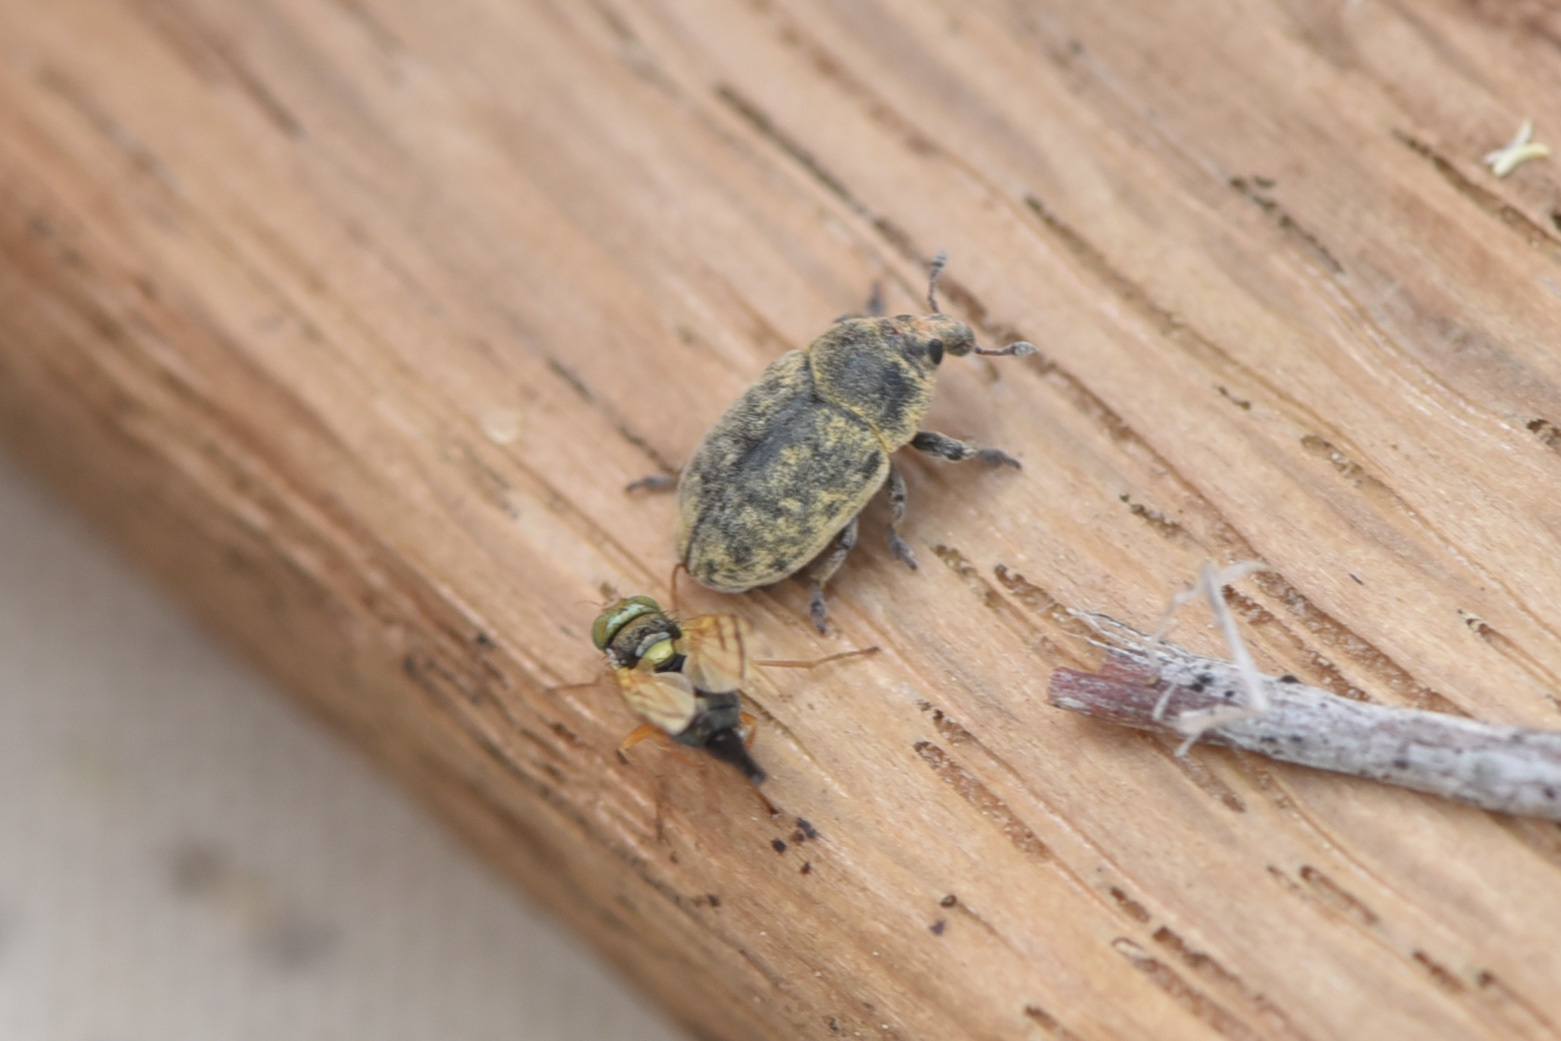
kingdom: Animalia
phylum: Arthropoda
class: Insecta
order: Coleoptera
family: Curculionidae
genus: Larinus
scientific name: Larinus minutus
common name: Weevil
